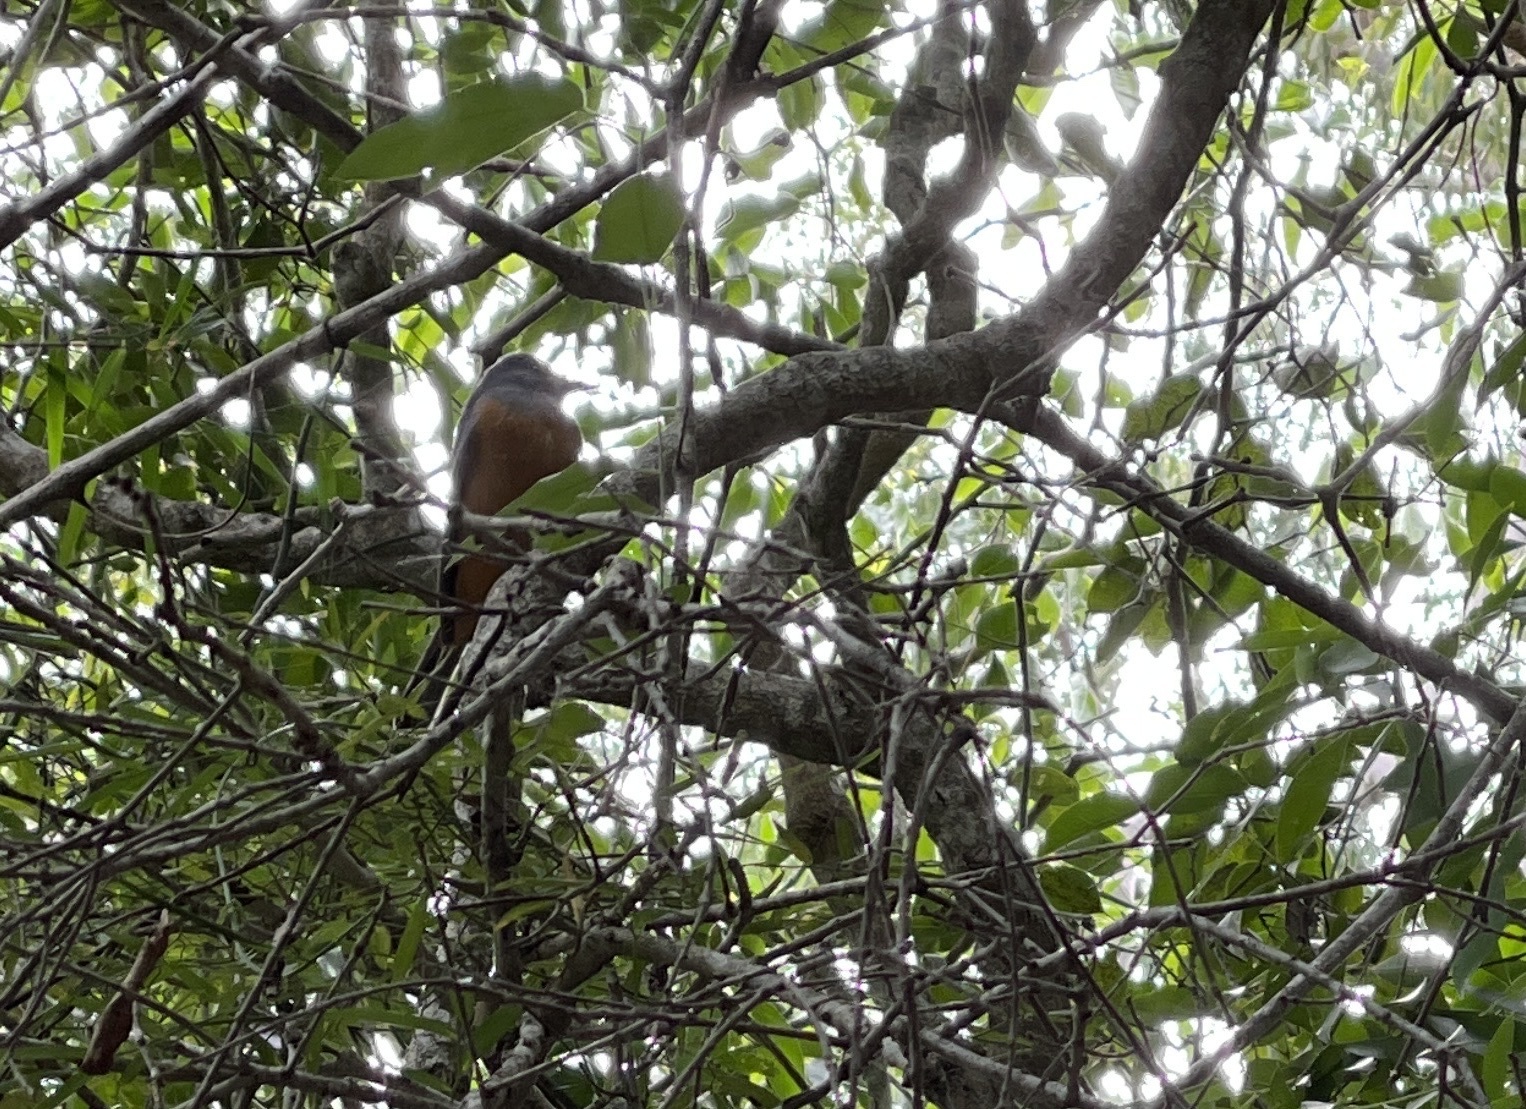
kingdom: Animalia
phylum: Chordata
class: Aves
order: Passeriformes
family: Monarchidae
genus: Monarcha
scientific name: Monarcha melanopsis
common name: Black-faced monarch
